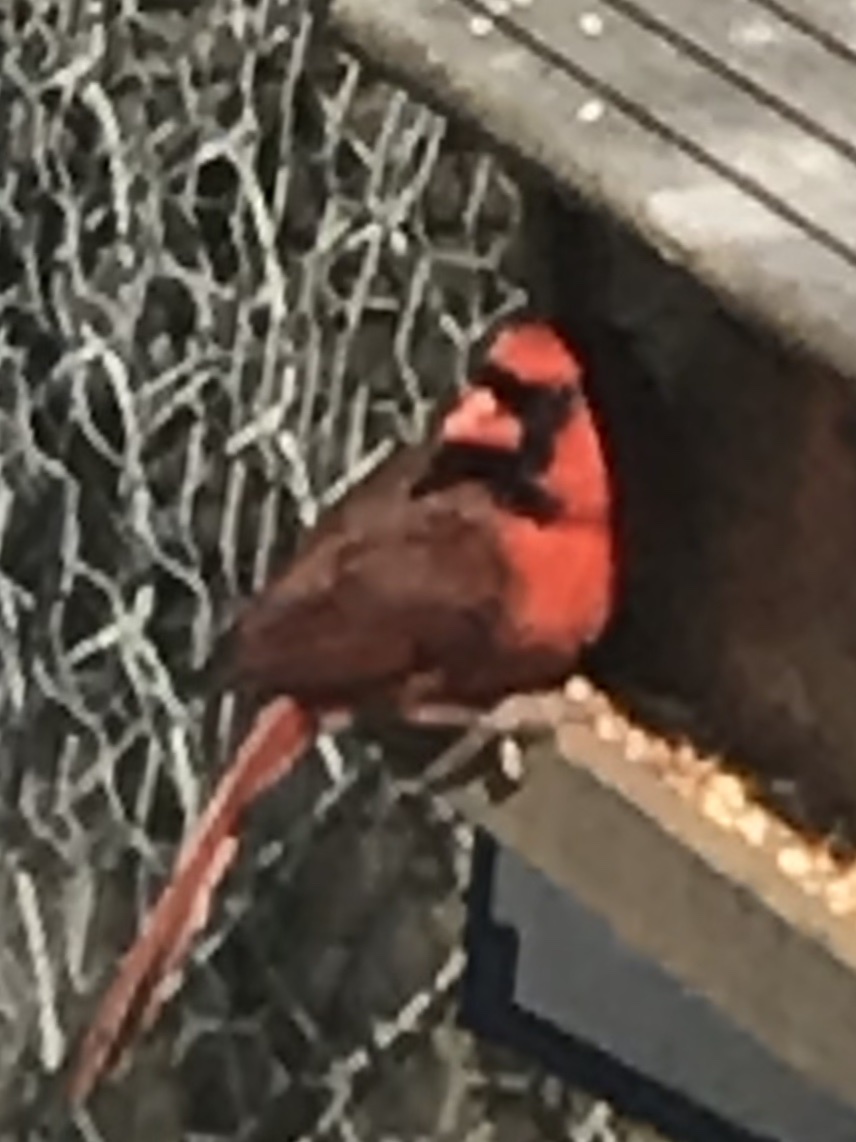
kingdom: Animalia
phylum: Chordata
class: Aves
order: Passeriformes
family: Cardinalidae
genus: Cardinalis
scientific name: Cardinalis cardinalis
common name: Northern cardinal
